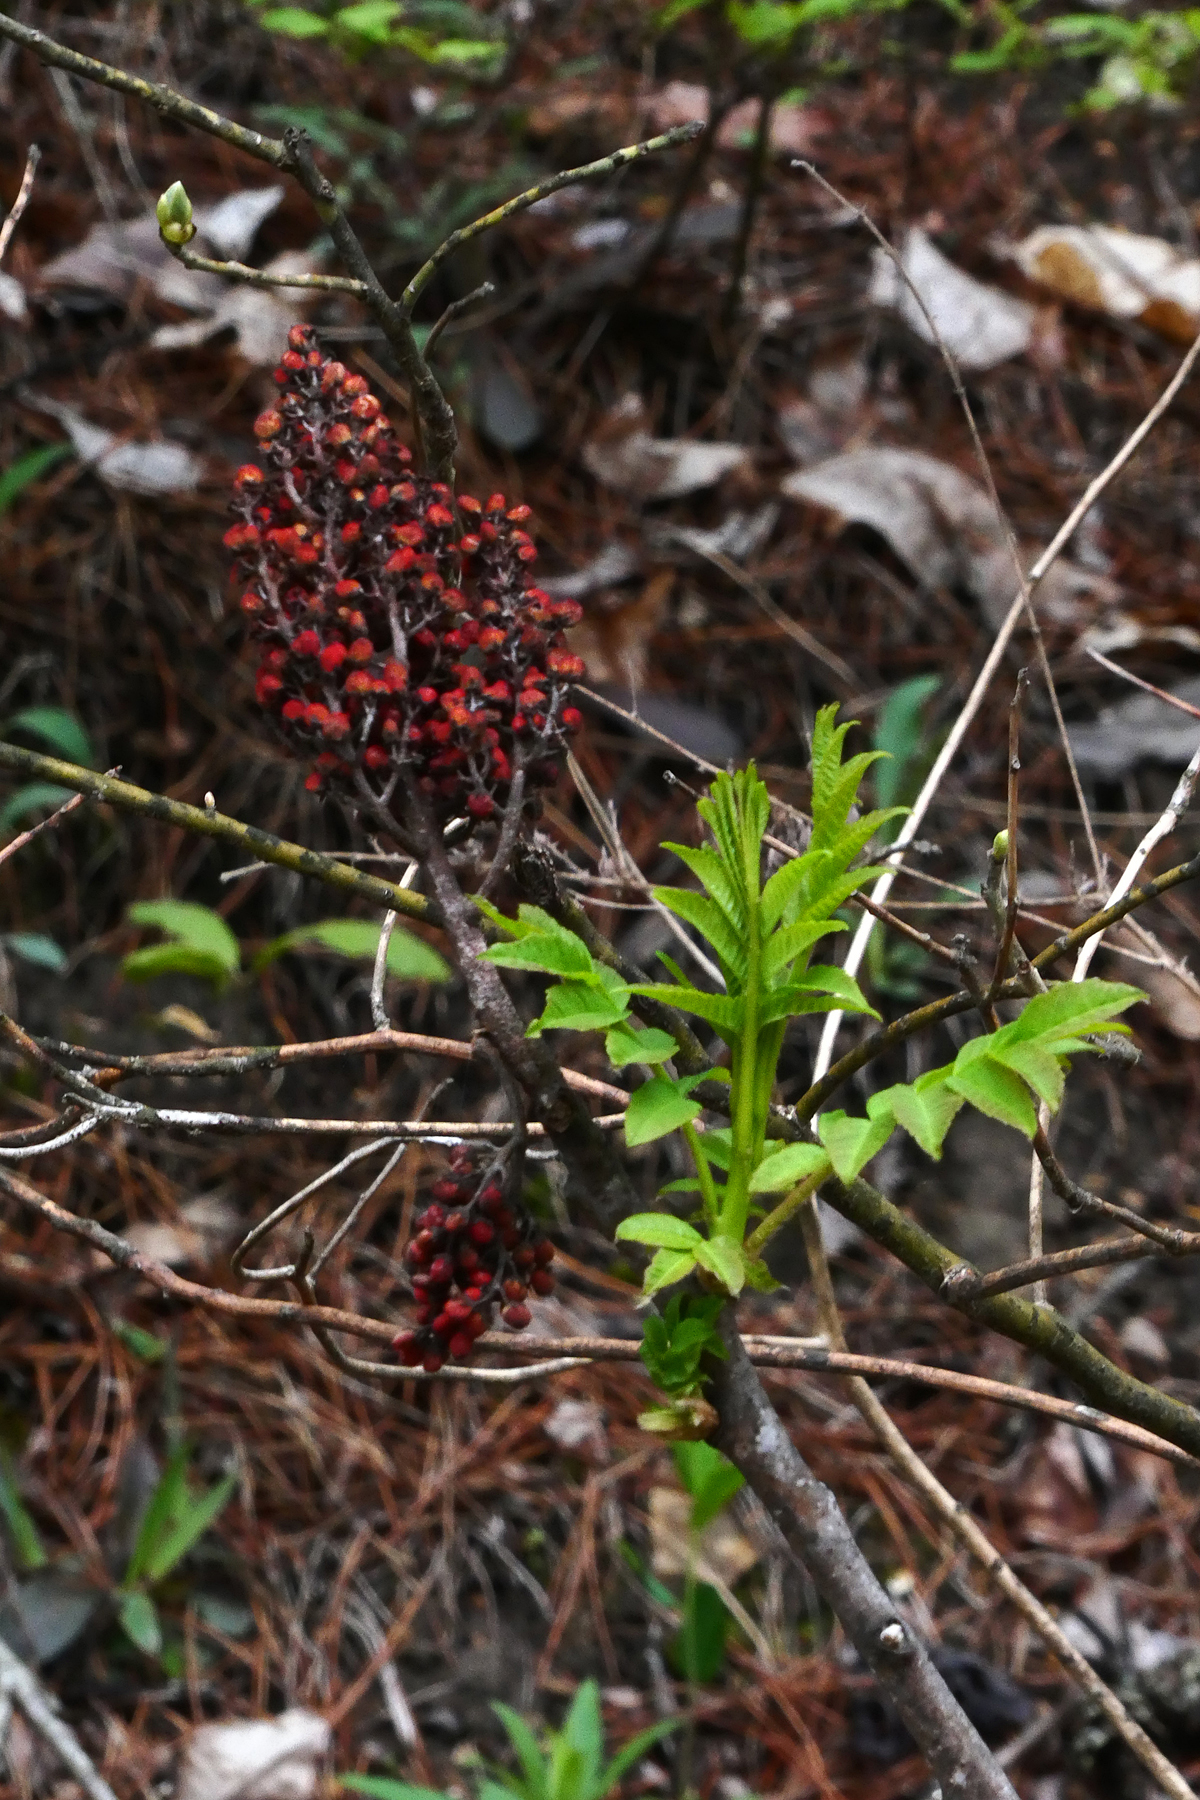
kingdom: Plantae
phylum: Tracheophyta
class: Magnoliopsida
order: Sapindales
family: Anacardiaceae
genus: Rhus
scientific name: Rhus glabra
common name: Scarlet sumac
